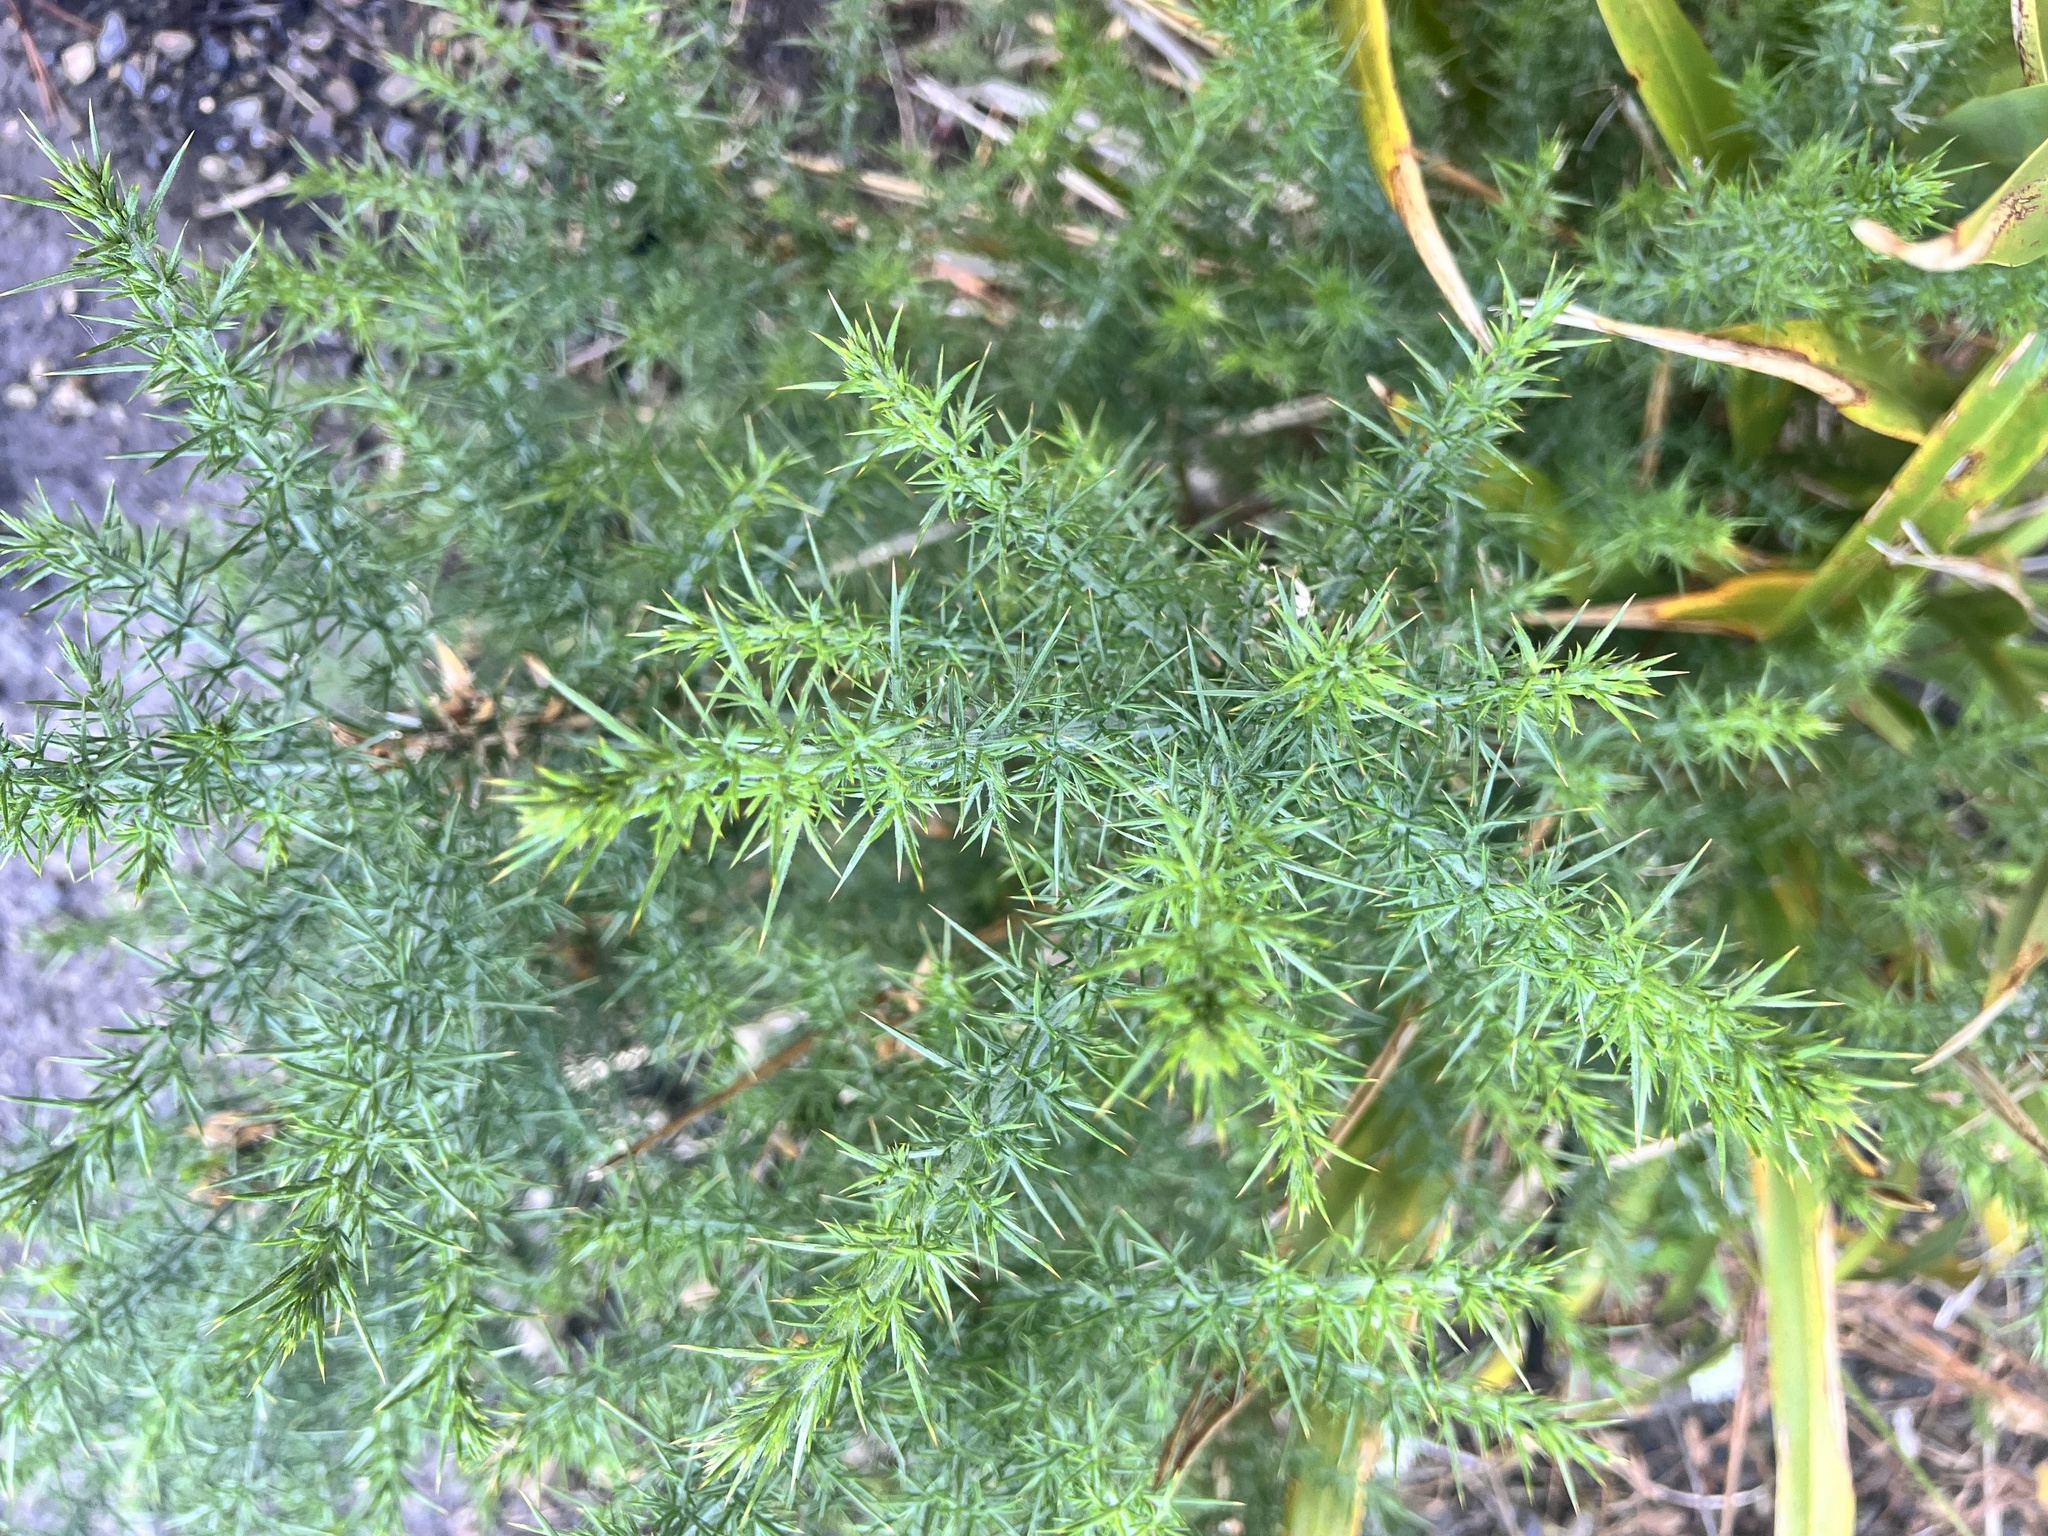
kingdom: Plantae
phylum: Tracheophyta
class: Magnoliopsida
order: Fabales
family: Fabaceae
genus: Ulex
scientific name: Ulex europaeus
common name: Common gorse
